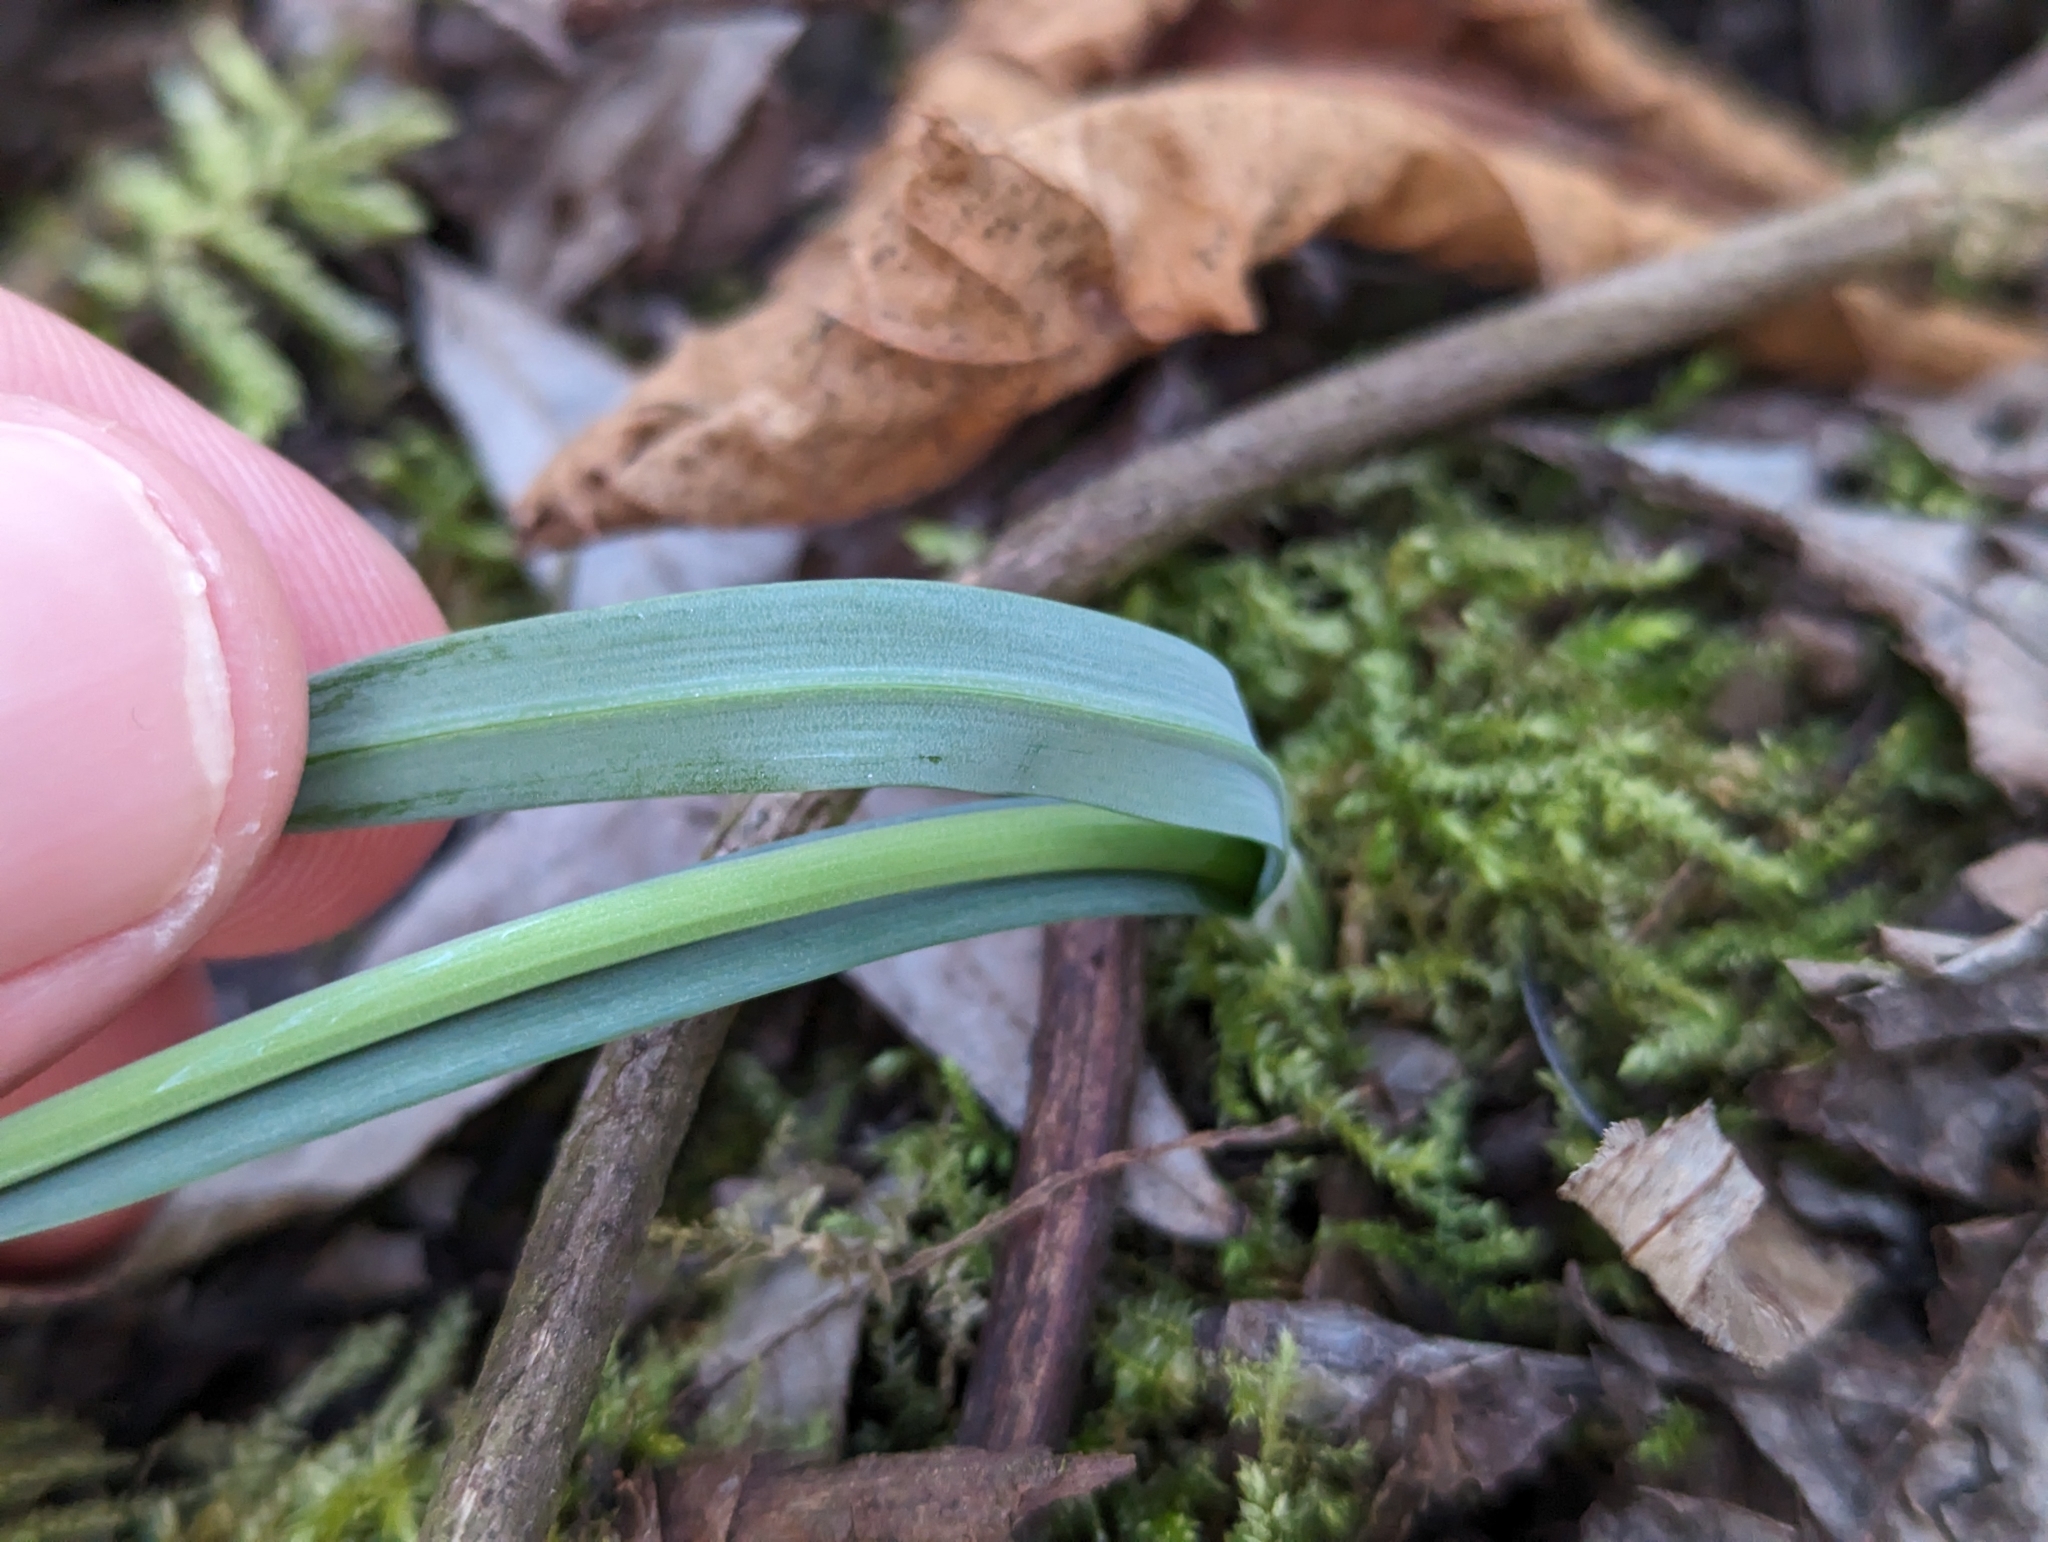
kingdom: Plantae
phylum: Tracheophyta
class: Liliopsida
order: Asparagales
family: Amaryllidaceae
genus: Galanthus
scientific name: Galanthus nivalis
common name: Snowdrop
